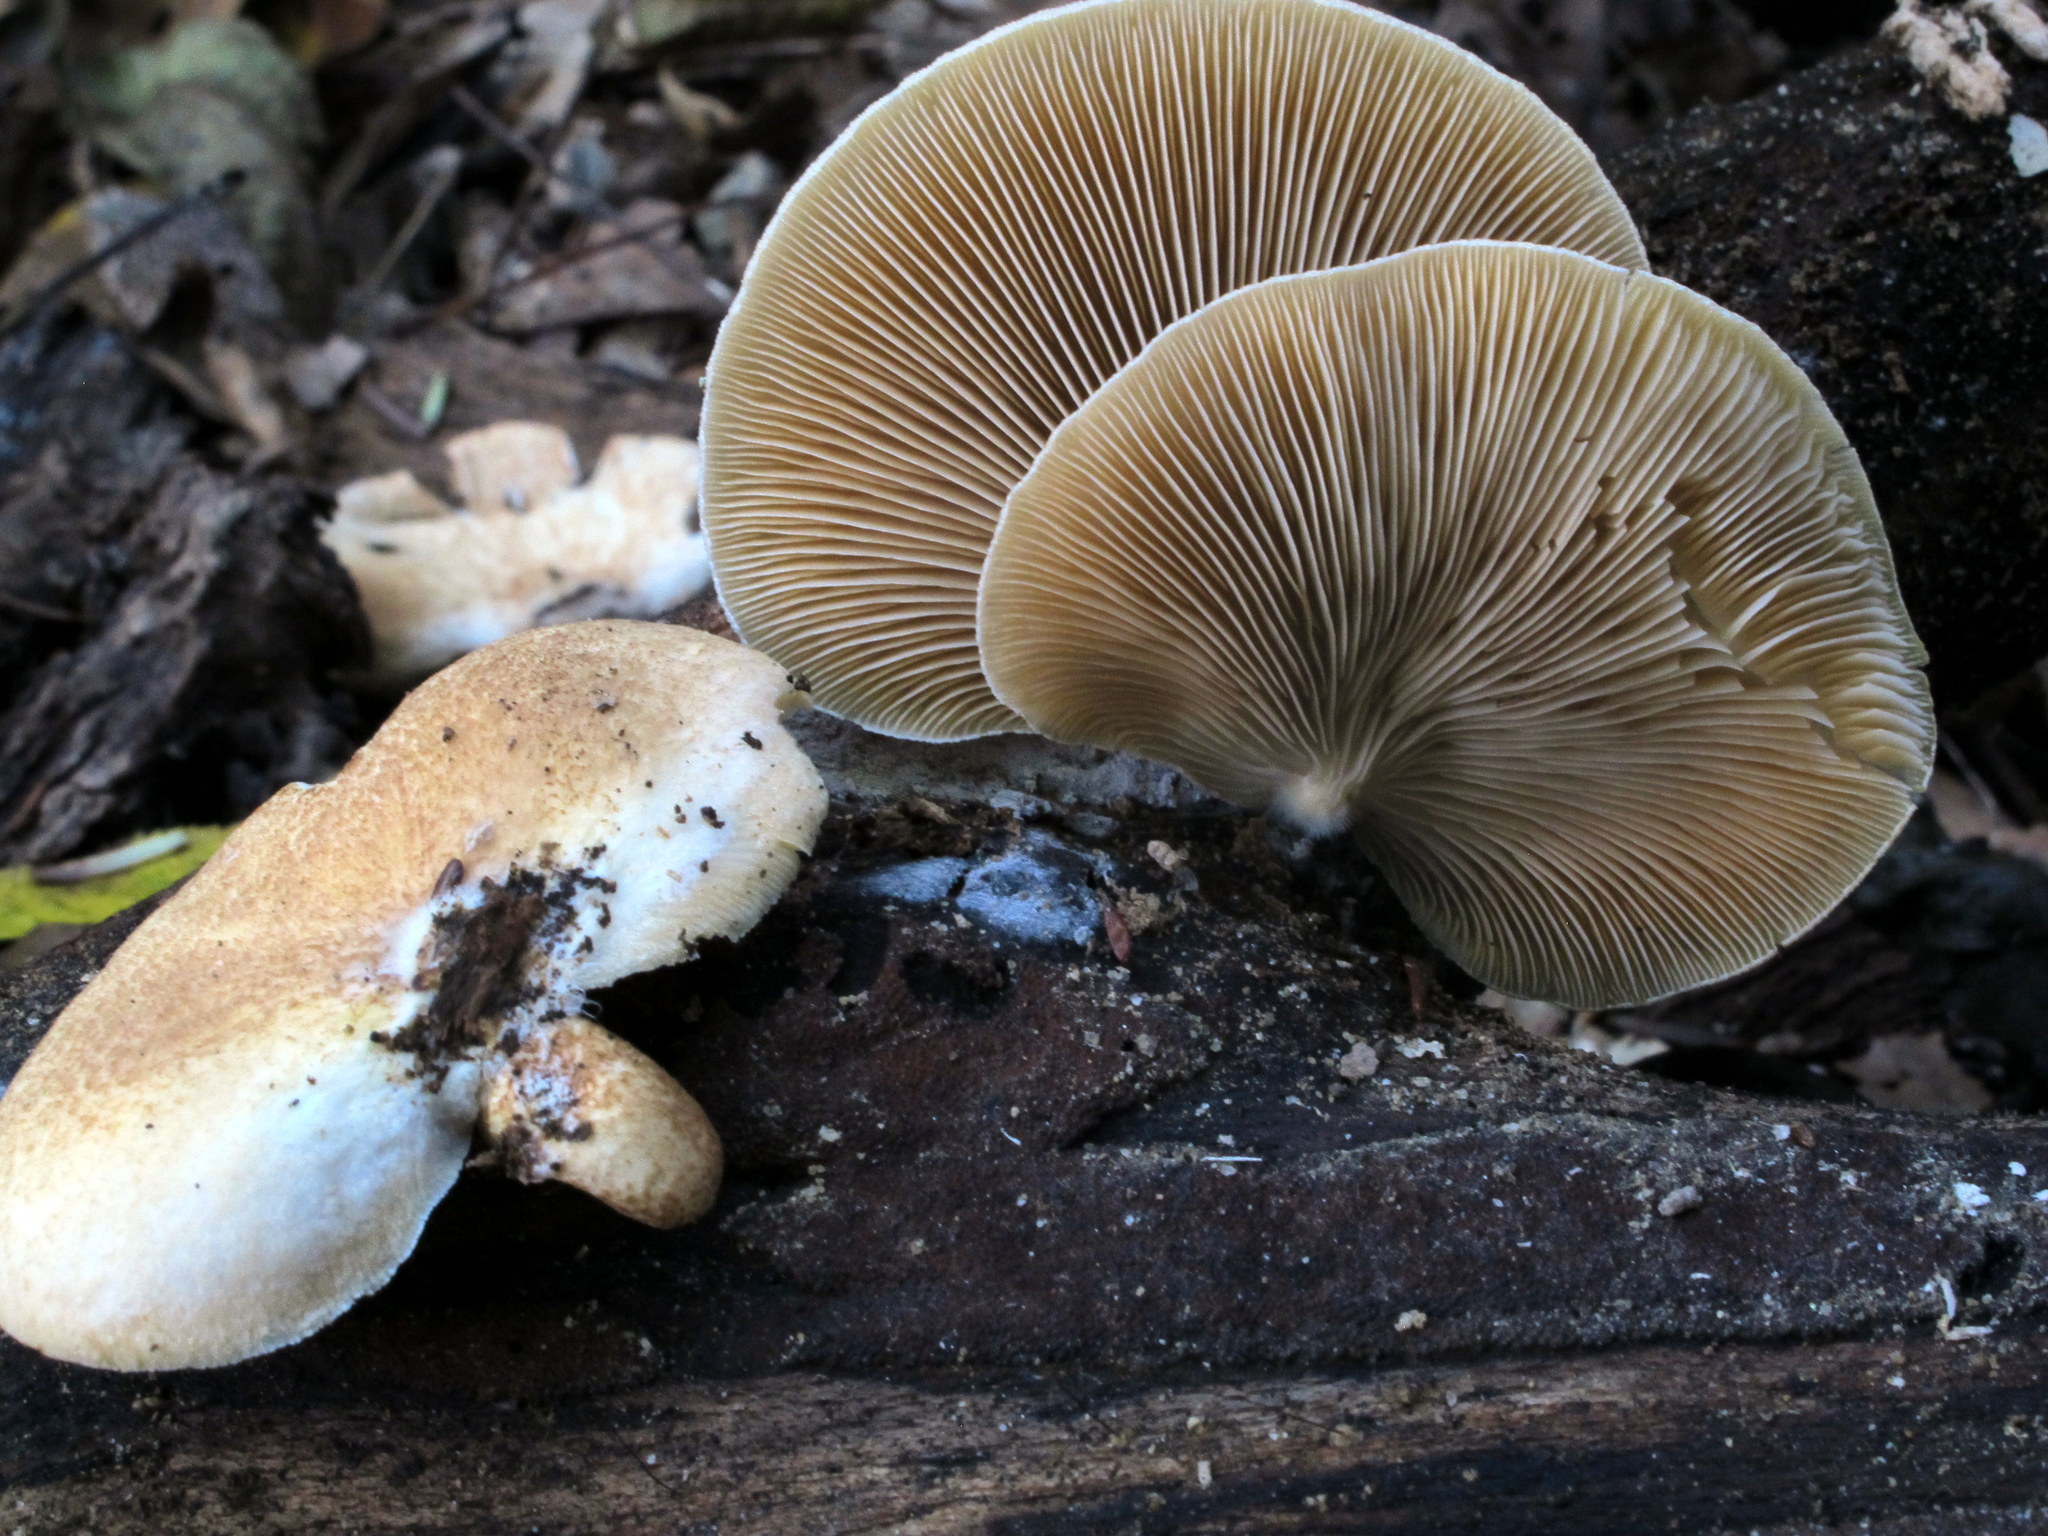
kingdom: Fungi
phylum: Basidiomycota
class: Agaricomycetes
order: Agaricales
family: Crepidotaceae
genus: Crepidotus
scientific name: Crepidotus mollis
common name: Peeling oysterling
